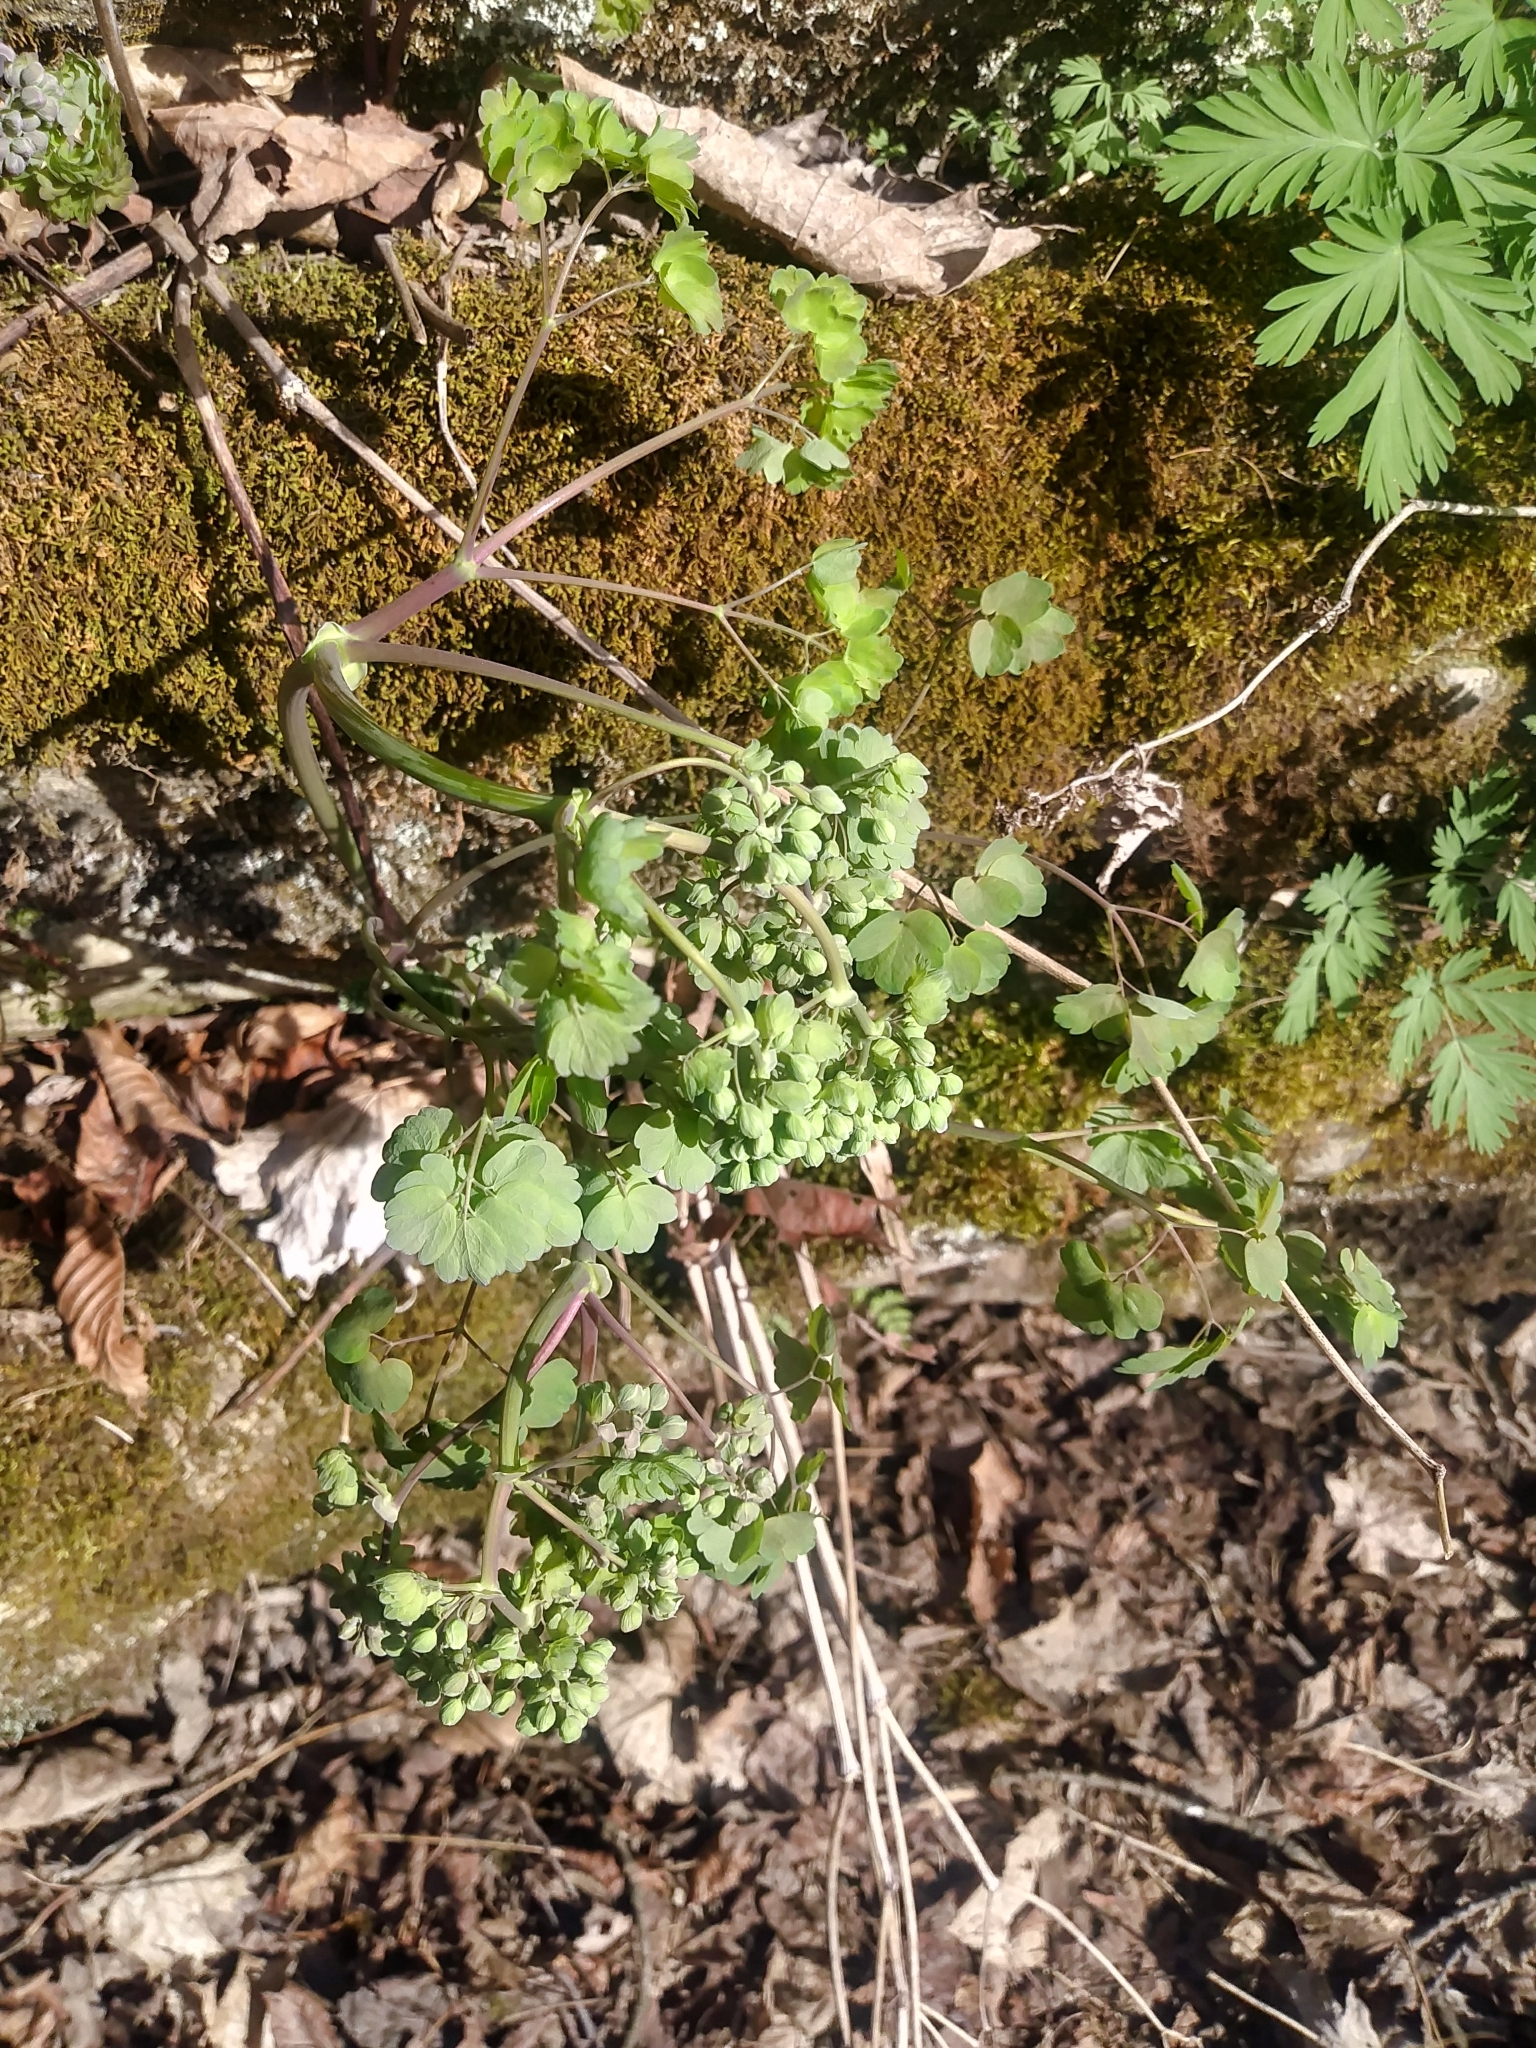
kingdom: Plantae
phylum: Tracheophyta
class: Magnoliopsida
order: Ranunculales
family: Ranunculaceae
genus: Thalictrum
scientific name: Thalictrum dioicum
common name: Early meadow-rue
